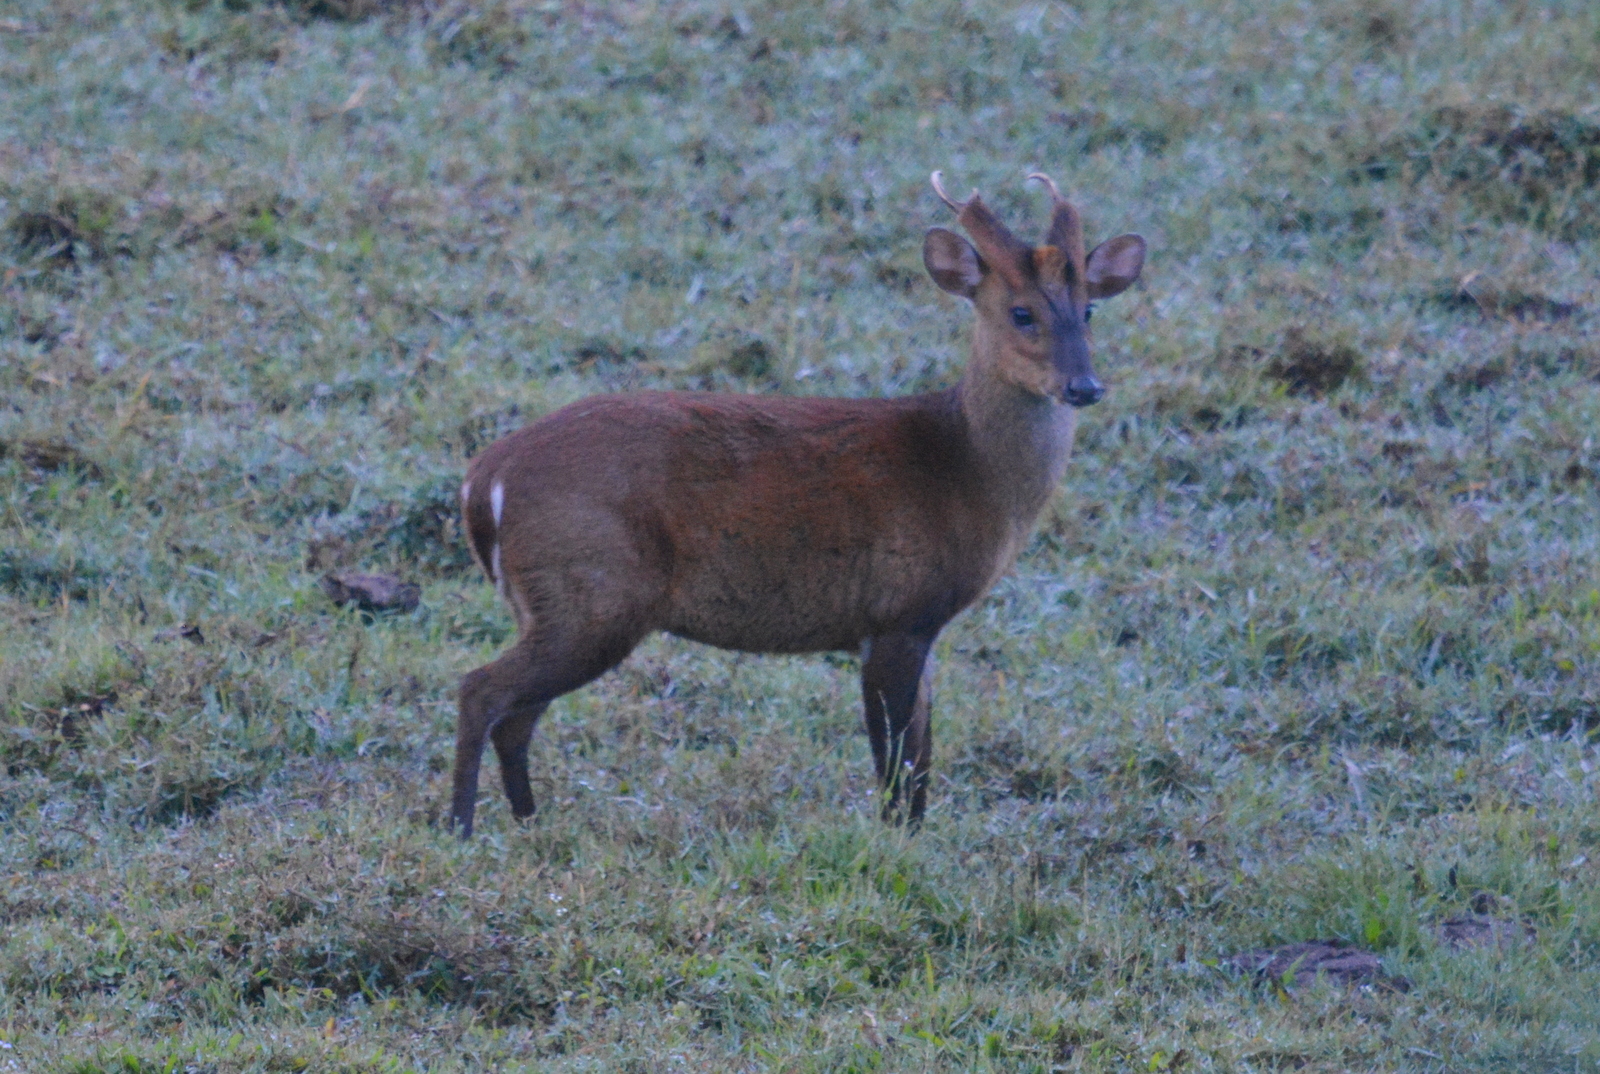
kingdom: Animalia
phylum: Chordata
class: Mammalia
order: Artiodactyla
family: Cervidae
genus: Muntiacus
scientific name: Muntiacus muntjak
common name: Indian muntjac
